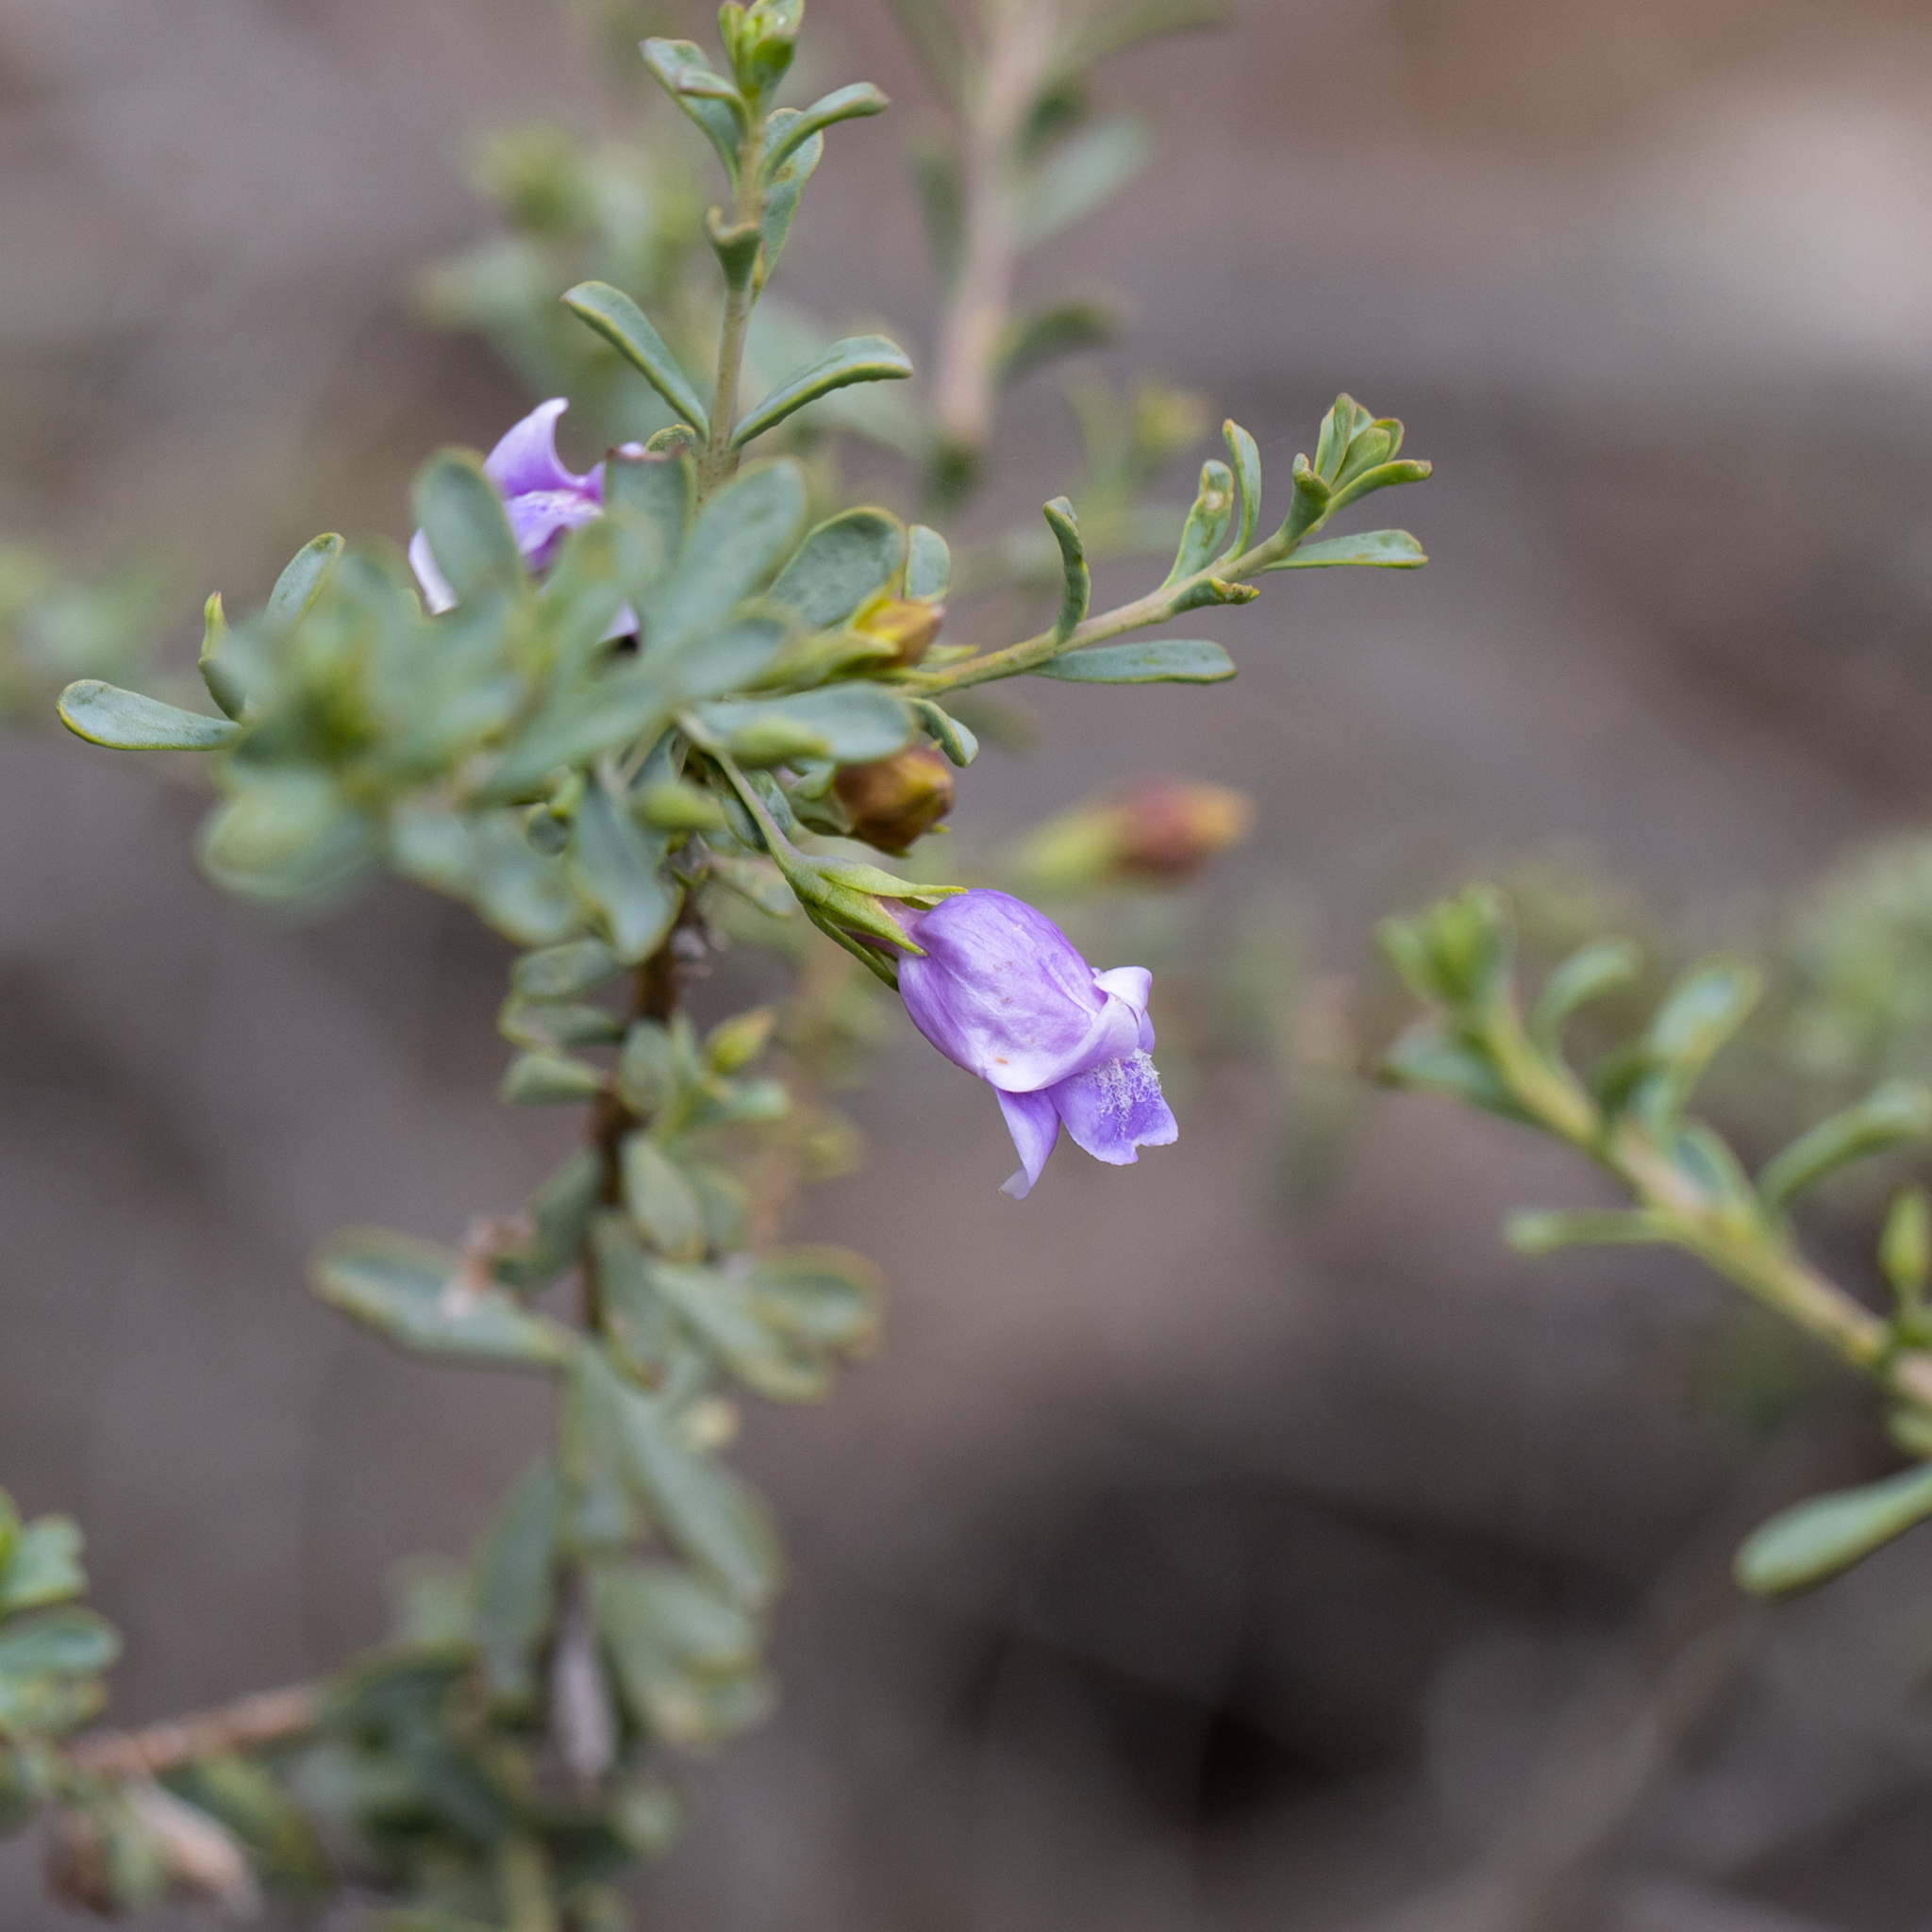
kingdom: Plantae
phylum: Tracheophyta
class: Magnoliopsida
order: Lamiales
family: Scrophulariaceae
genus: Eremophila
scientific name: Eremophila weldii
